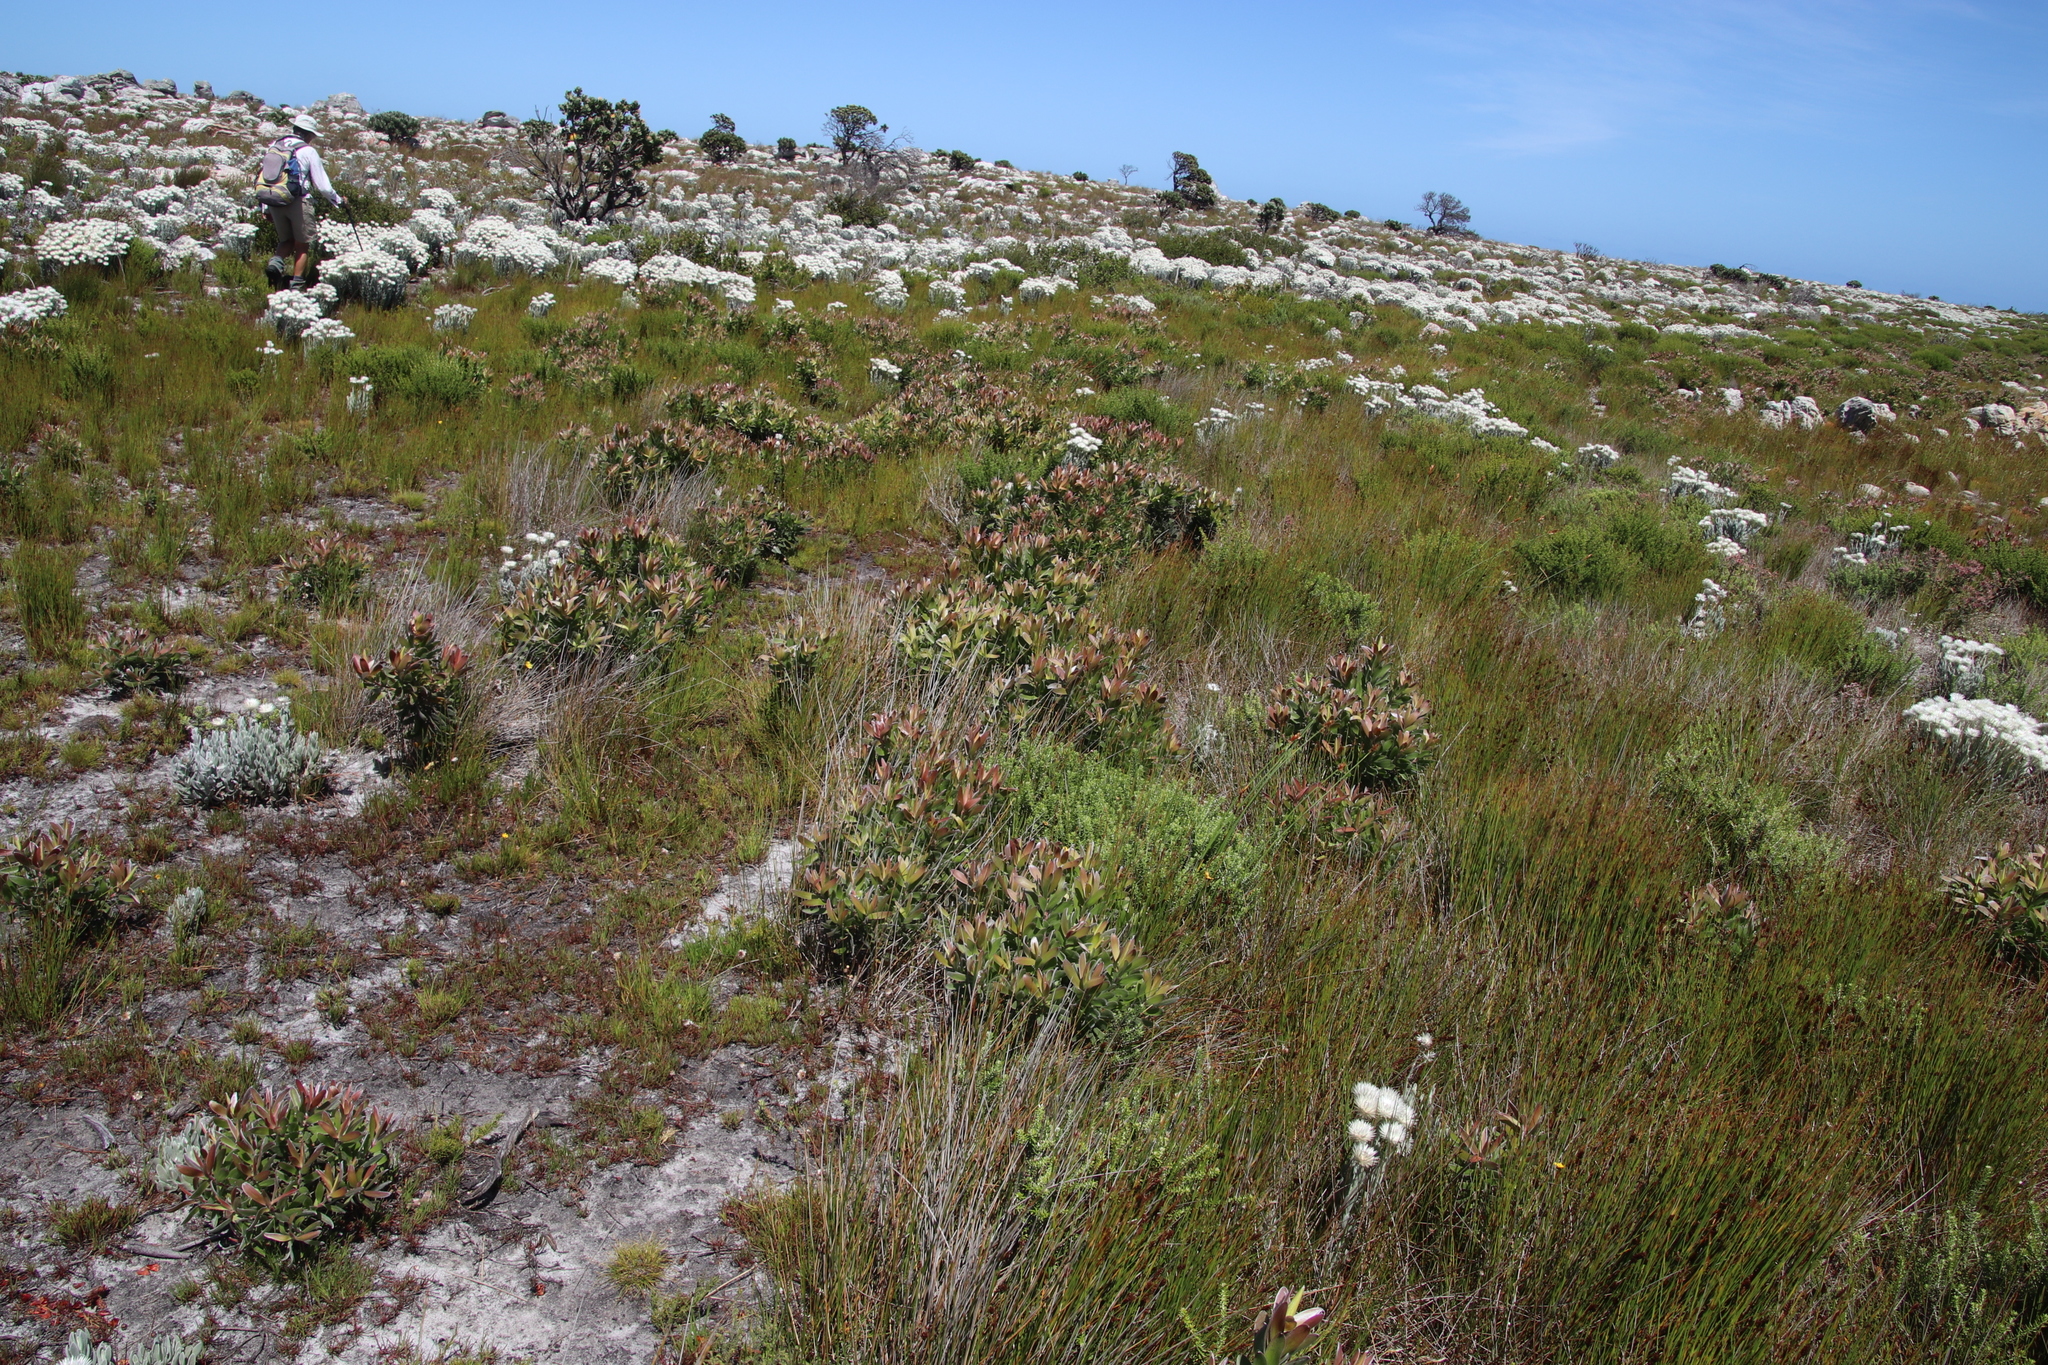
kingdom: Plantae
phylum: Tracheophyta
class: Magnoliopsida
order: Proteales
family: Proteaceae
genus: Leucadendron
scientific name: Leucadendron laureolum
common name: Golden sunshinebush
